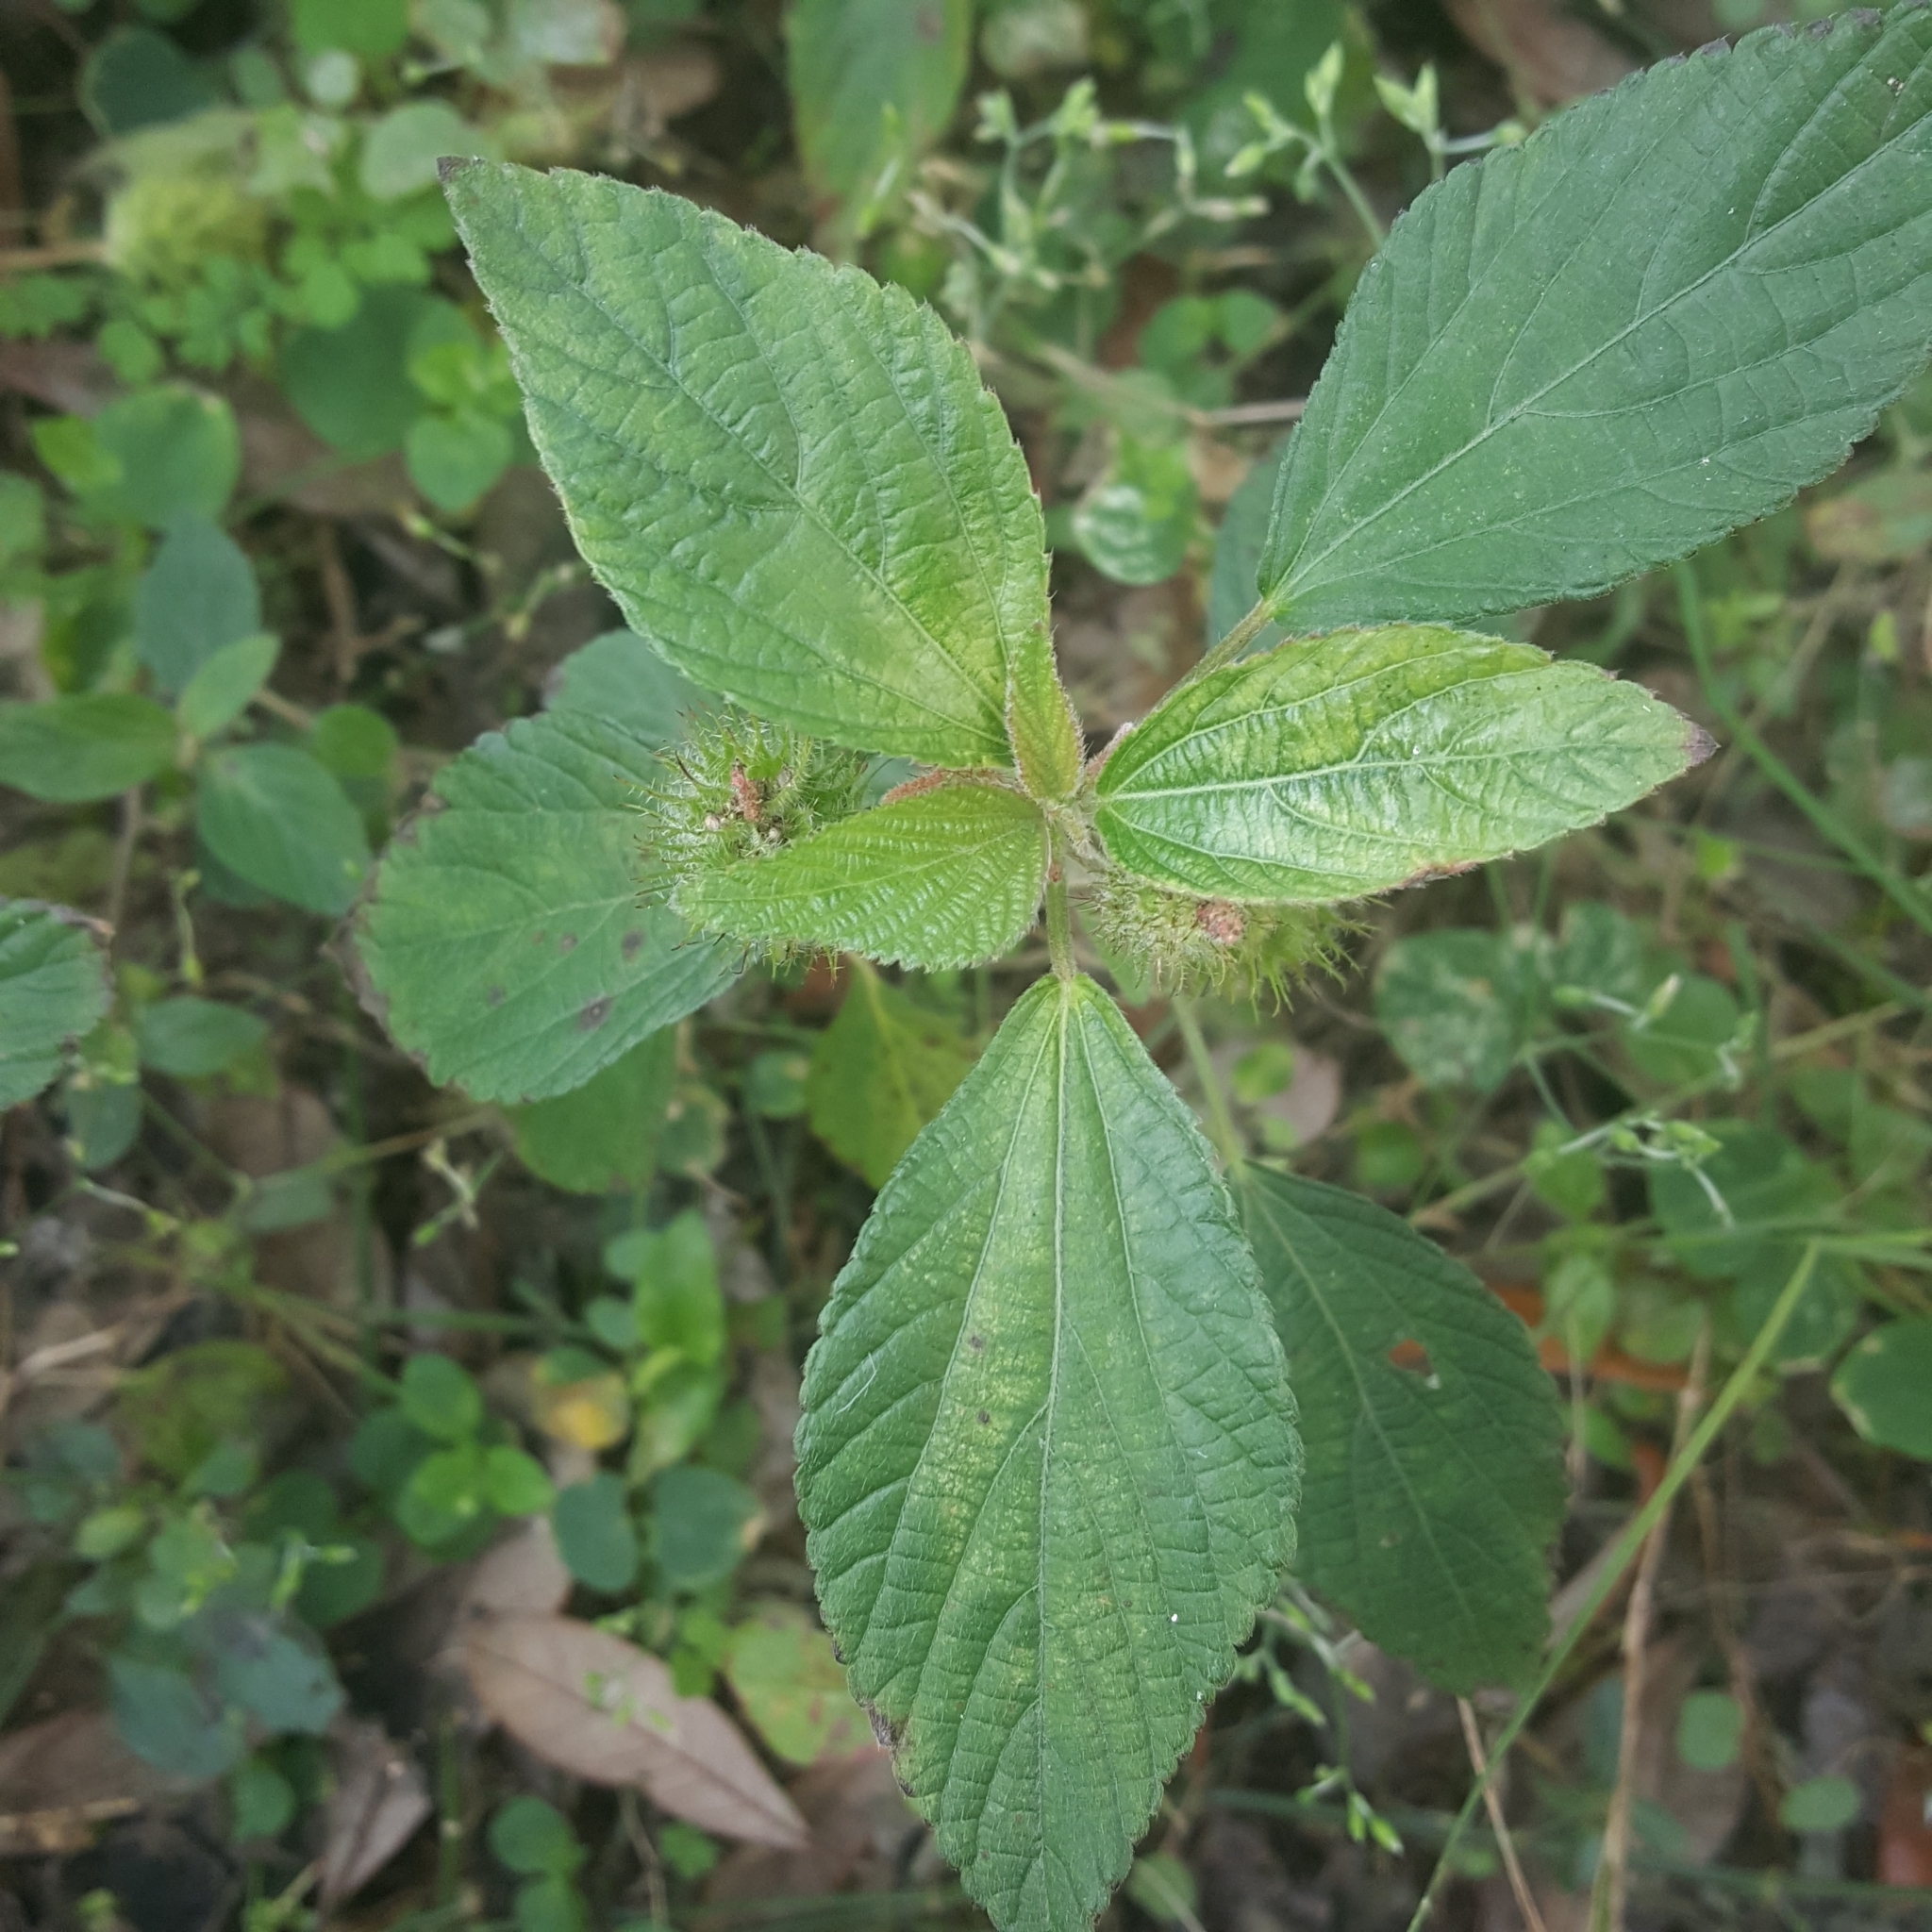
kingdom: Plantae
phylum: Tracheophyta
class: Magnoliopsida
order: Malpighiales
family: Euphorbiaceae
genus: Acalypha
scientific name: Acalypha arvensis
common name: Field copperleaf
